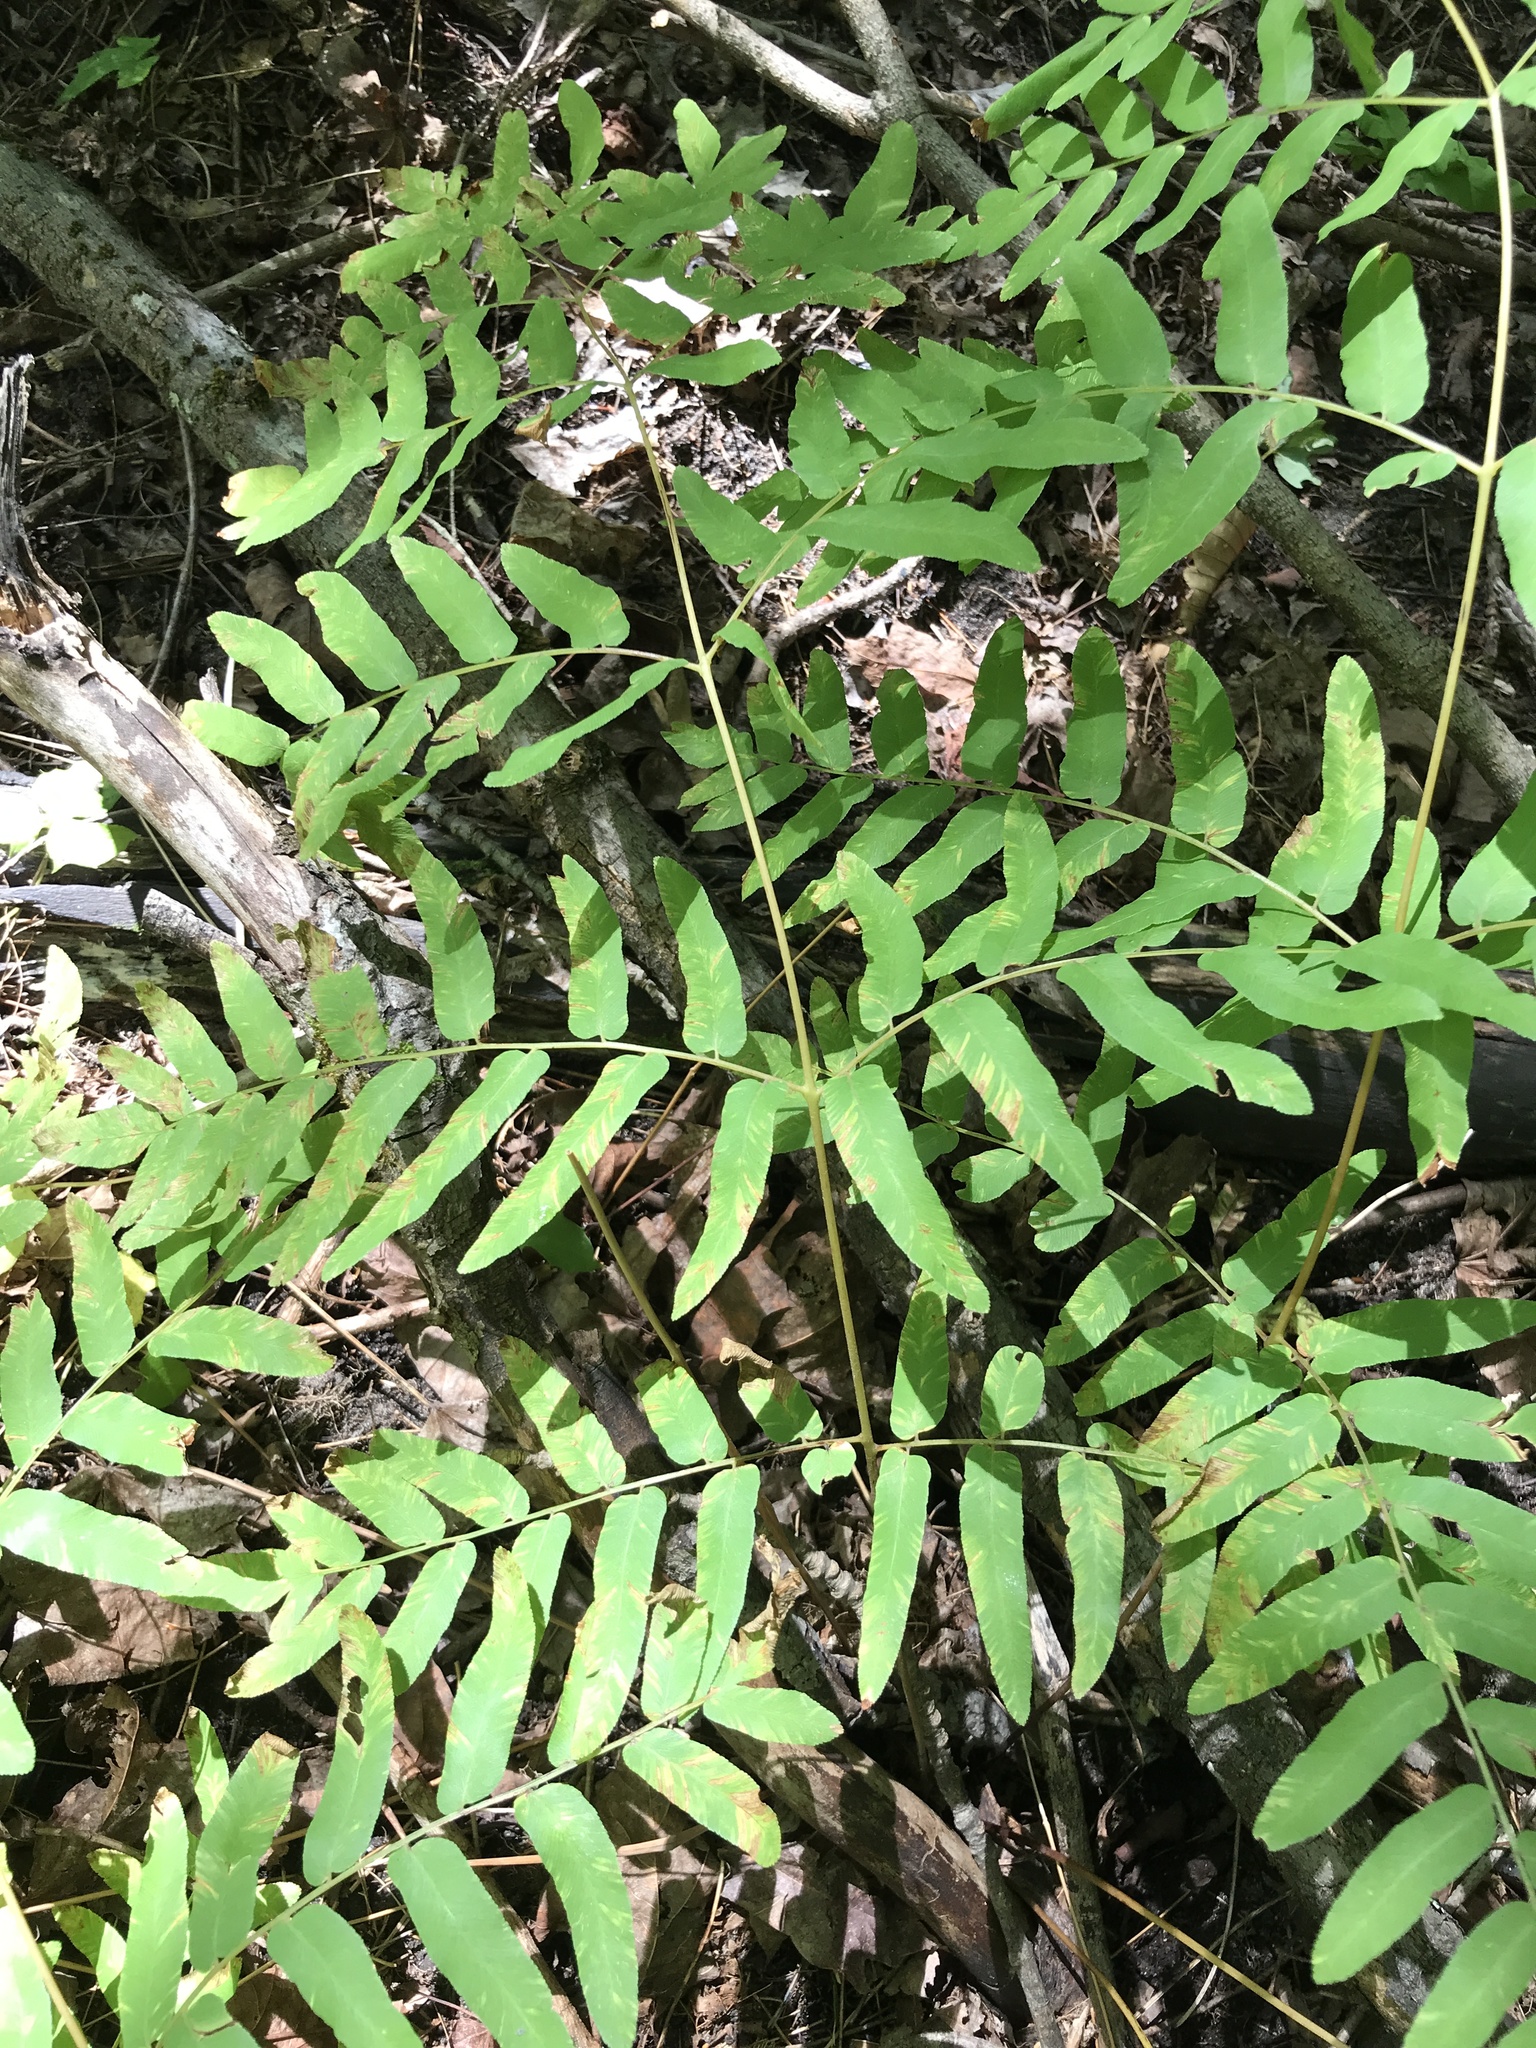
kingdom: Plantae
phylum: Tracheophyta
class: Polypodiopsida
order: Osmundales
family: Osmundaceae
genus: Osmunda
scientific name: Osmunda spectabilis
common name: American royal fern
